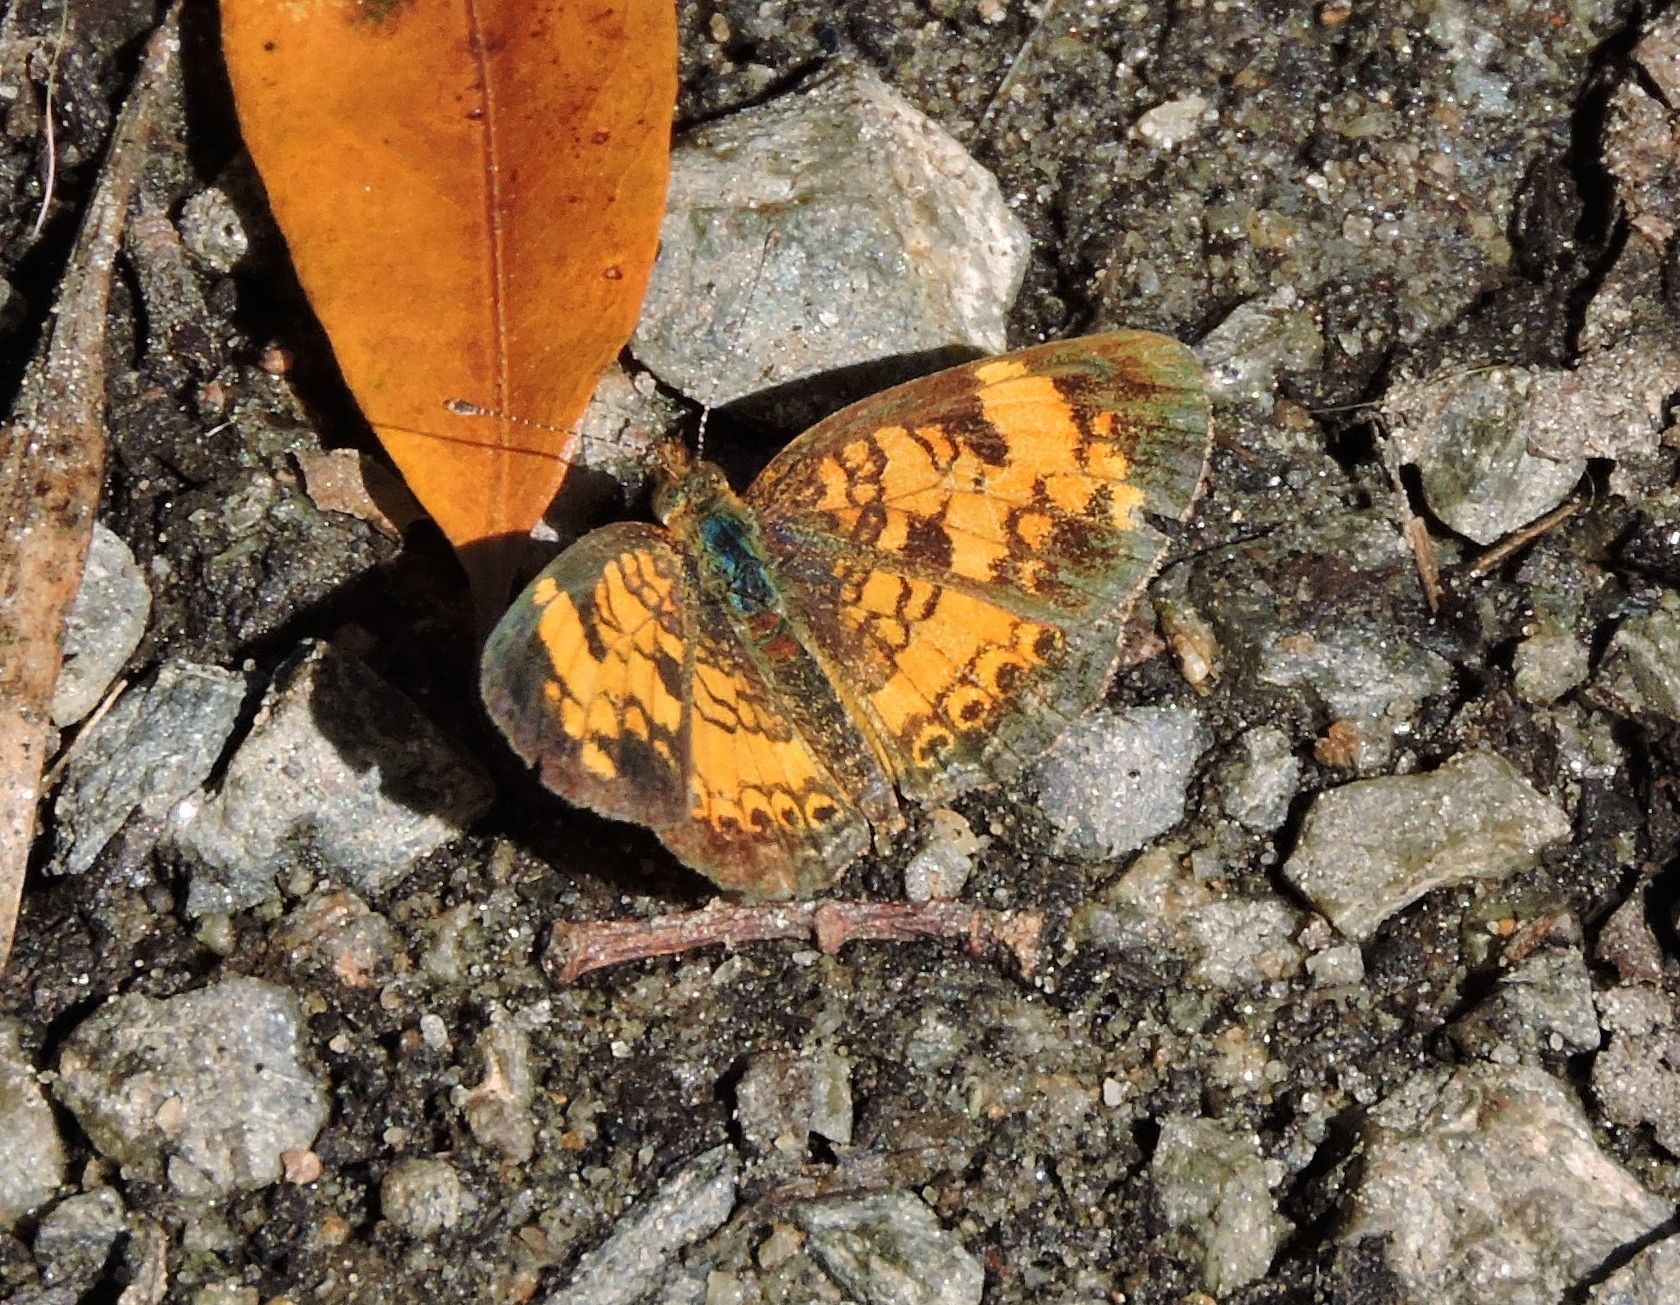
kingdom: Animalia
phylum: Arthropoda
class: Insecta
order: Lepidoptera
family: Nymphalidae
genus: Phyciodes
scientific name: Phyciodes tharos
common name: Pearl crescent
